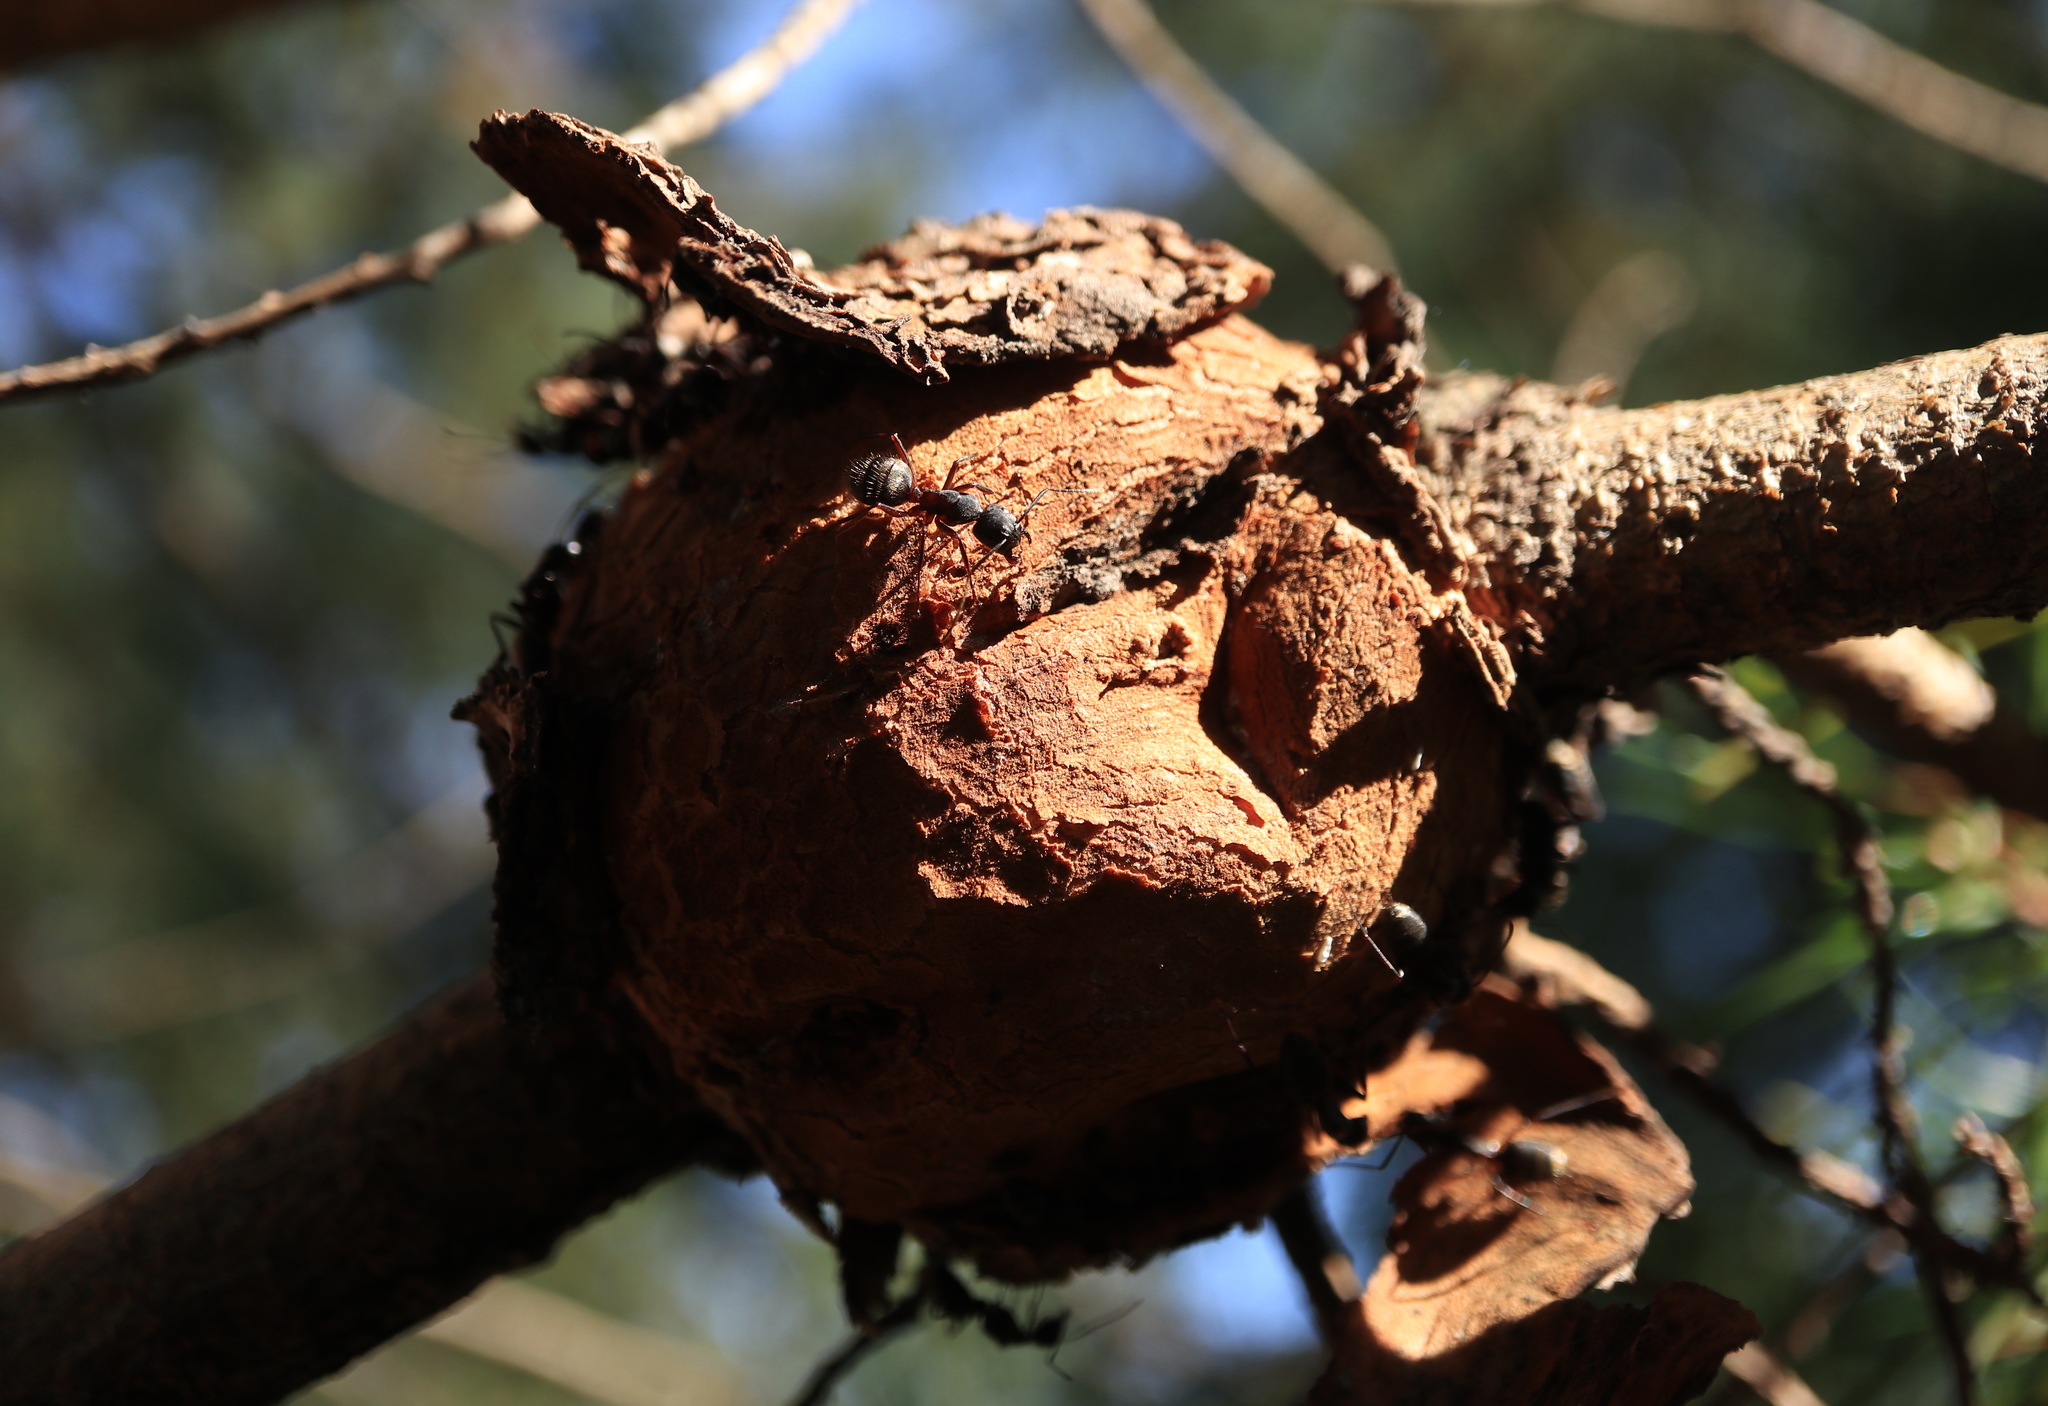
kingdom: Fungi
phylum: Basidiomycota
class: Pucciniomycetes
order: Pucciniales
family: Cronartiaceae
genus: Cronartium
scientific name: Cronartium quercuum
